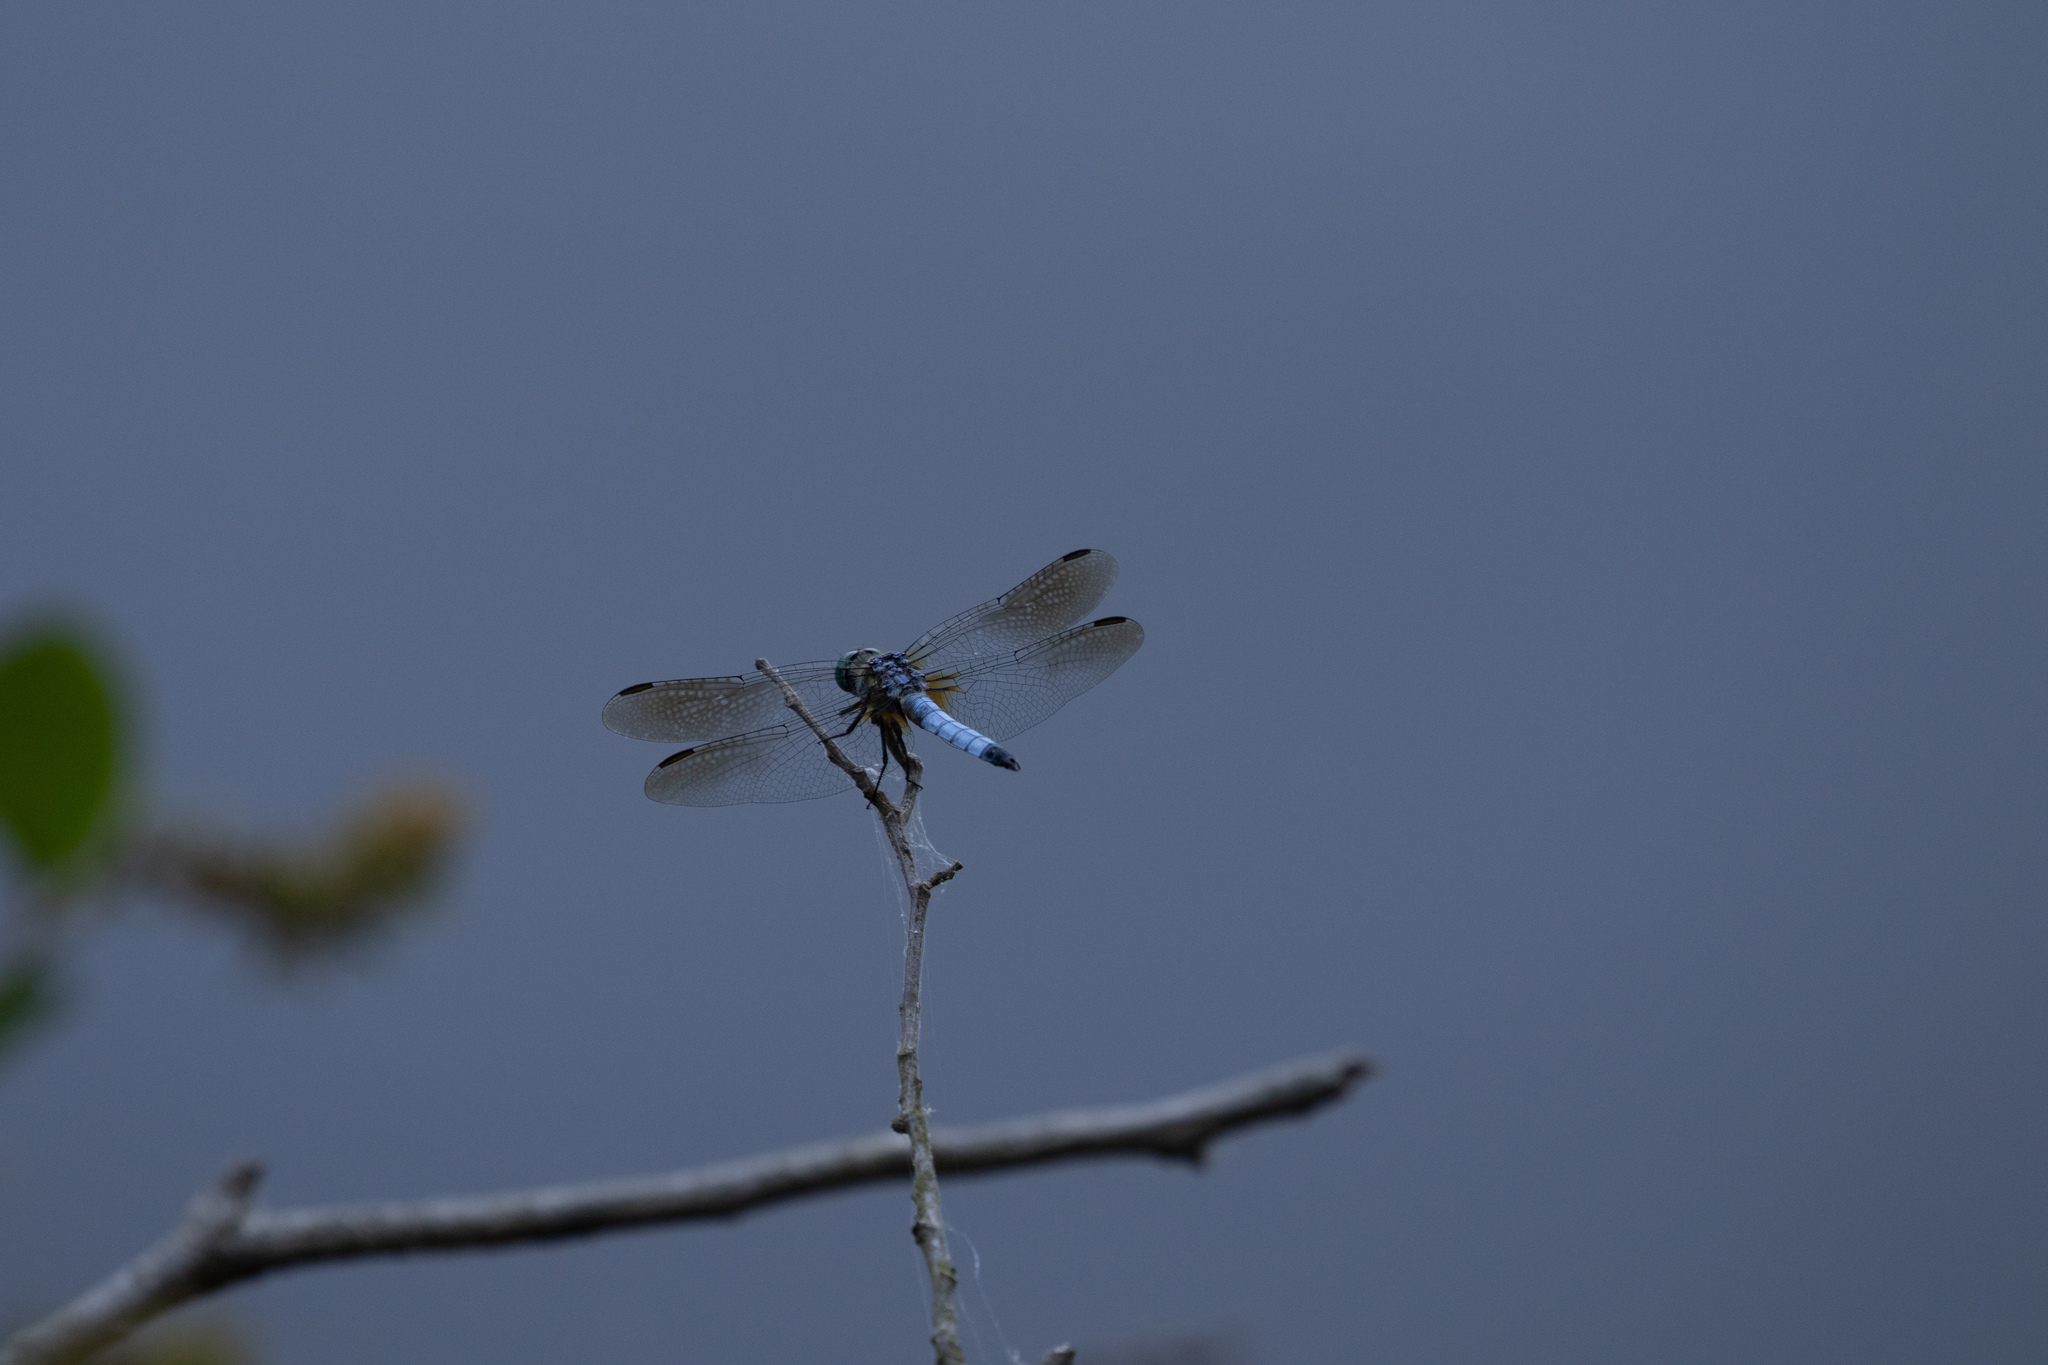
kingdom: Animalia
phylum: Arthropoda
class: Insecta
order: Odonata
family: Libellulidae
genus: Pachydiplax
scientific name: Pachydiplax longipennis
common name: Blue dasher
